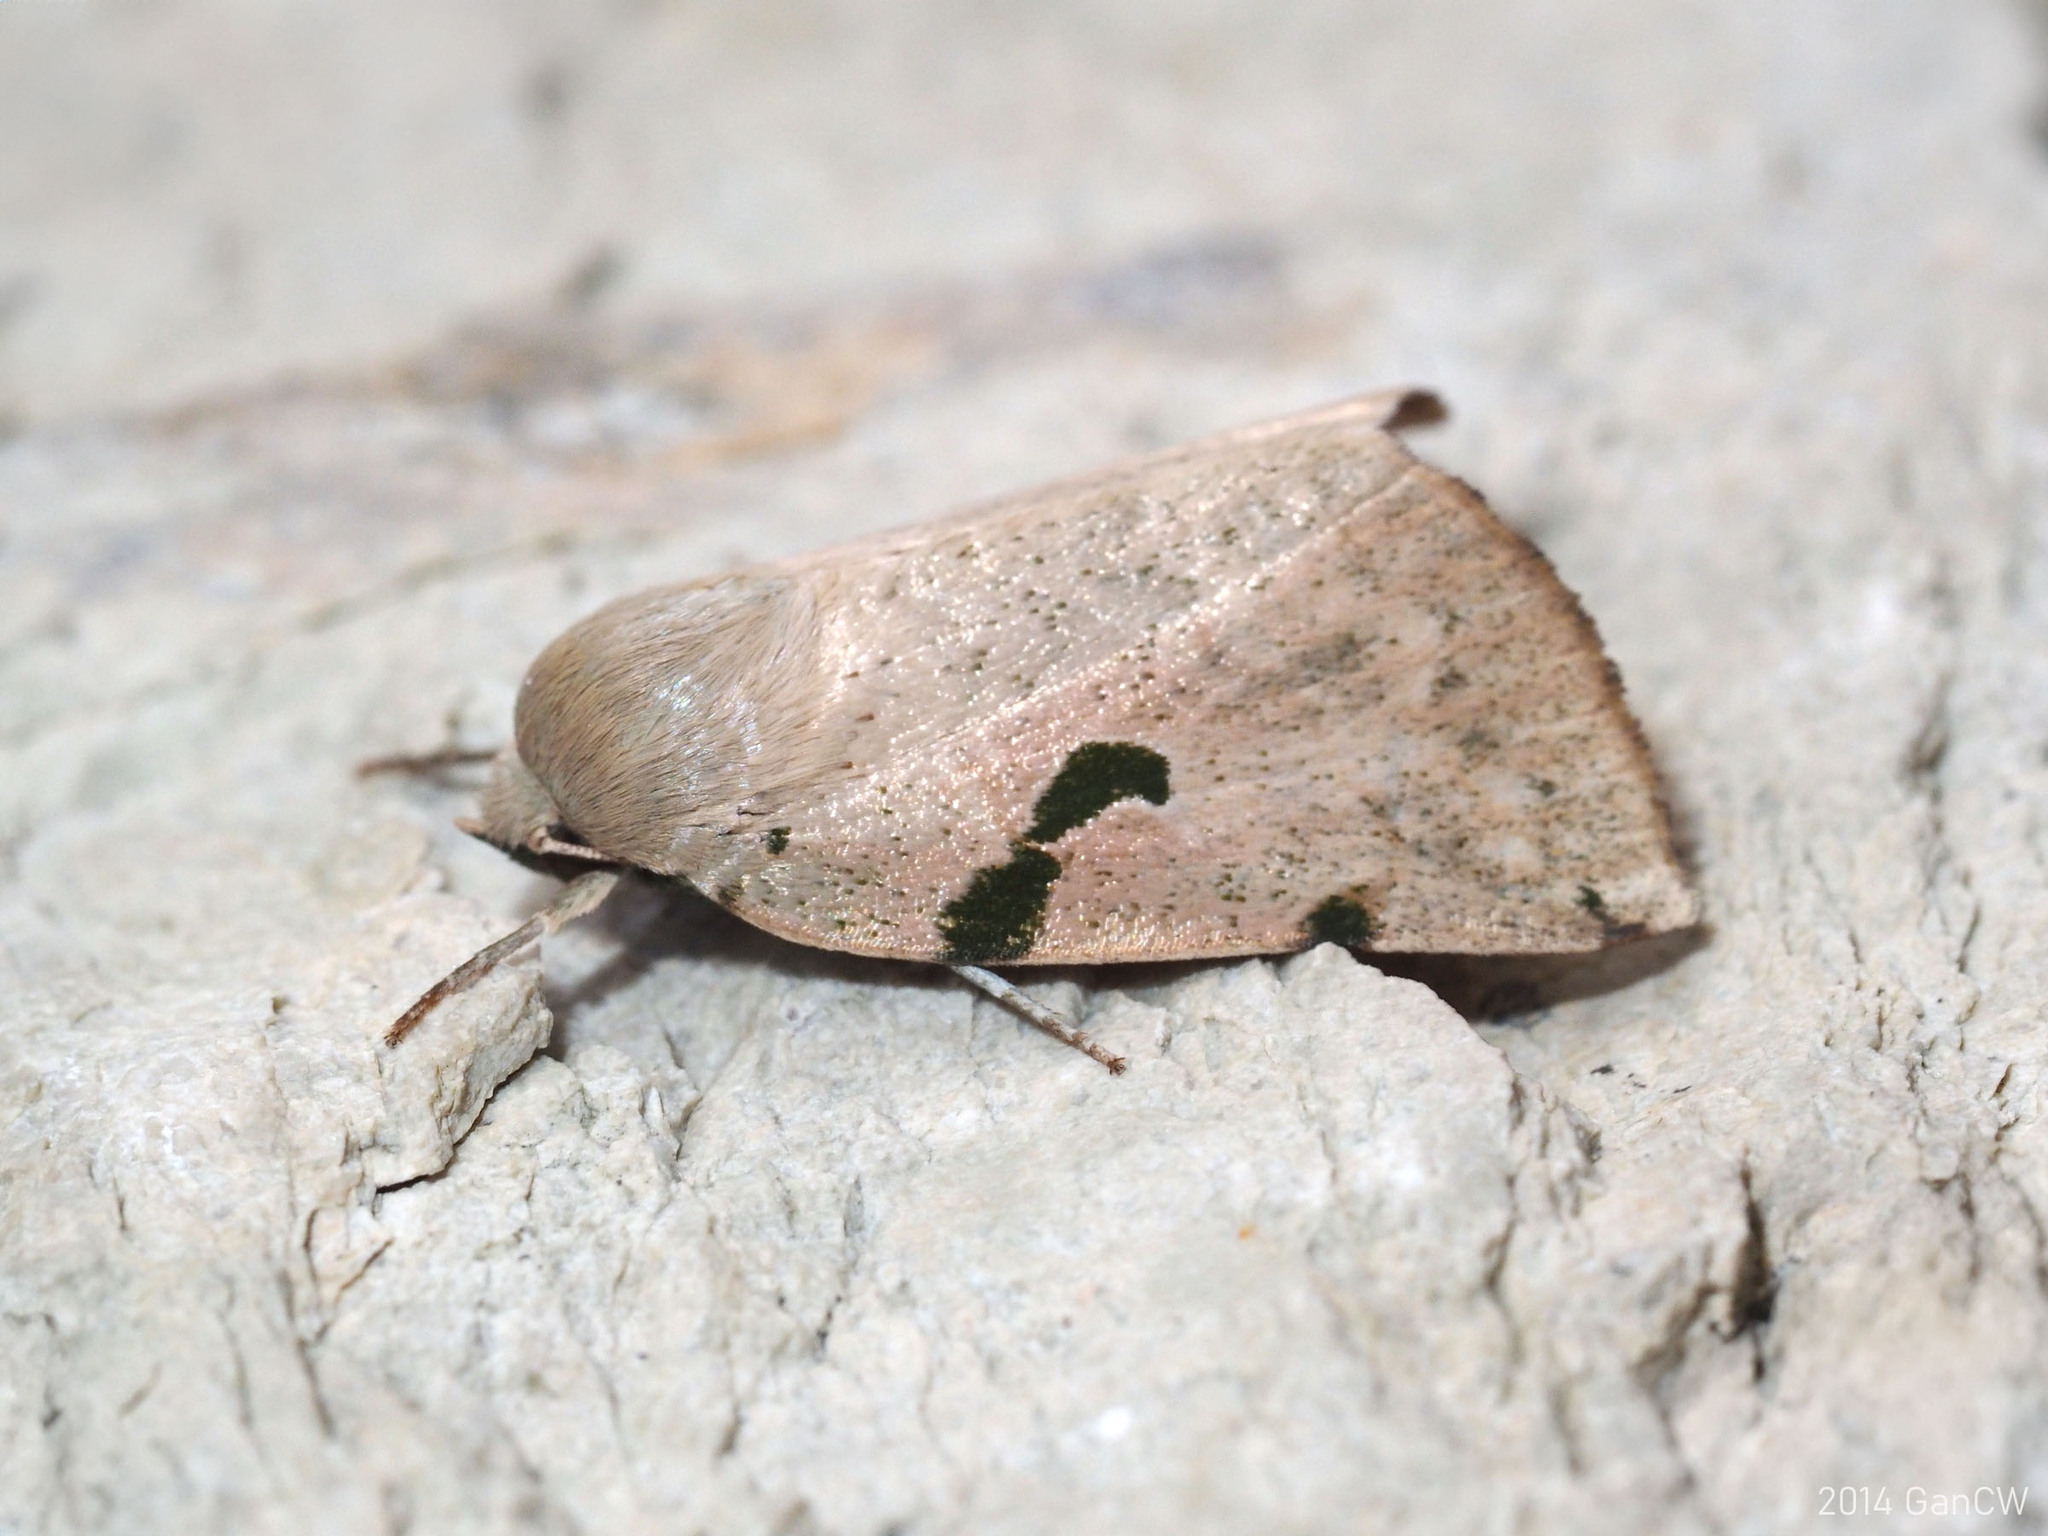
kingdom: Animalia
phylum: Arthropoda
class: Insecta
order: Lepidoptera
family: Nolidae
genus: Chloroplaga
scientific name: Chloroplaga pallida
